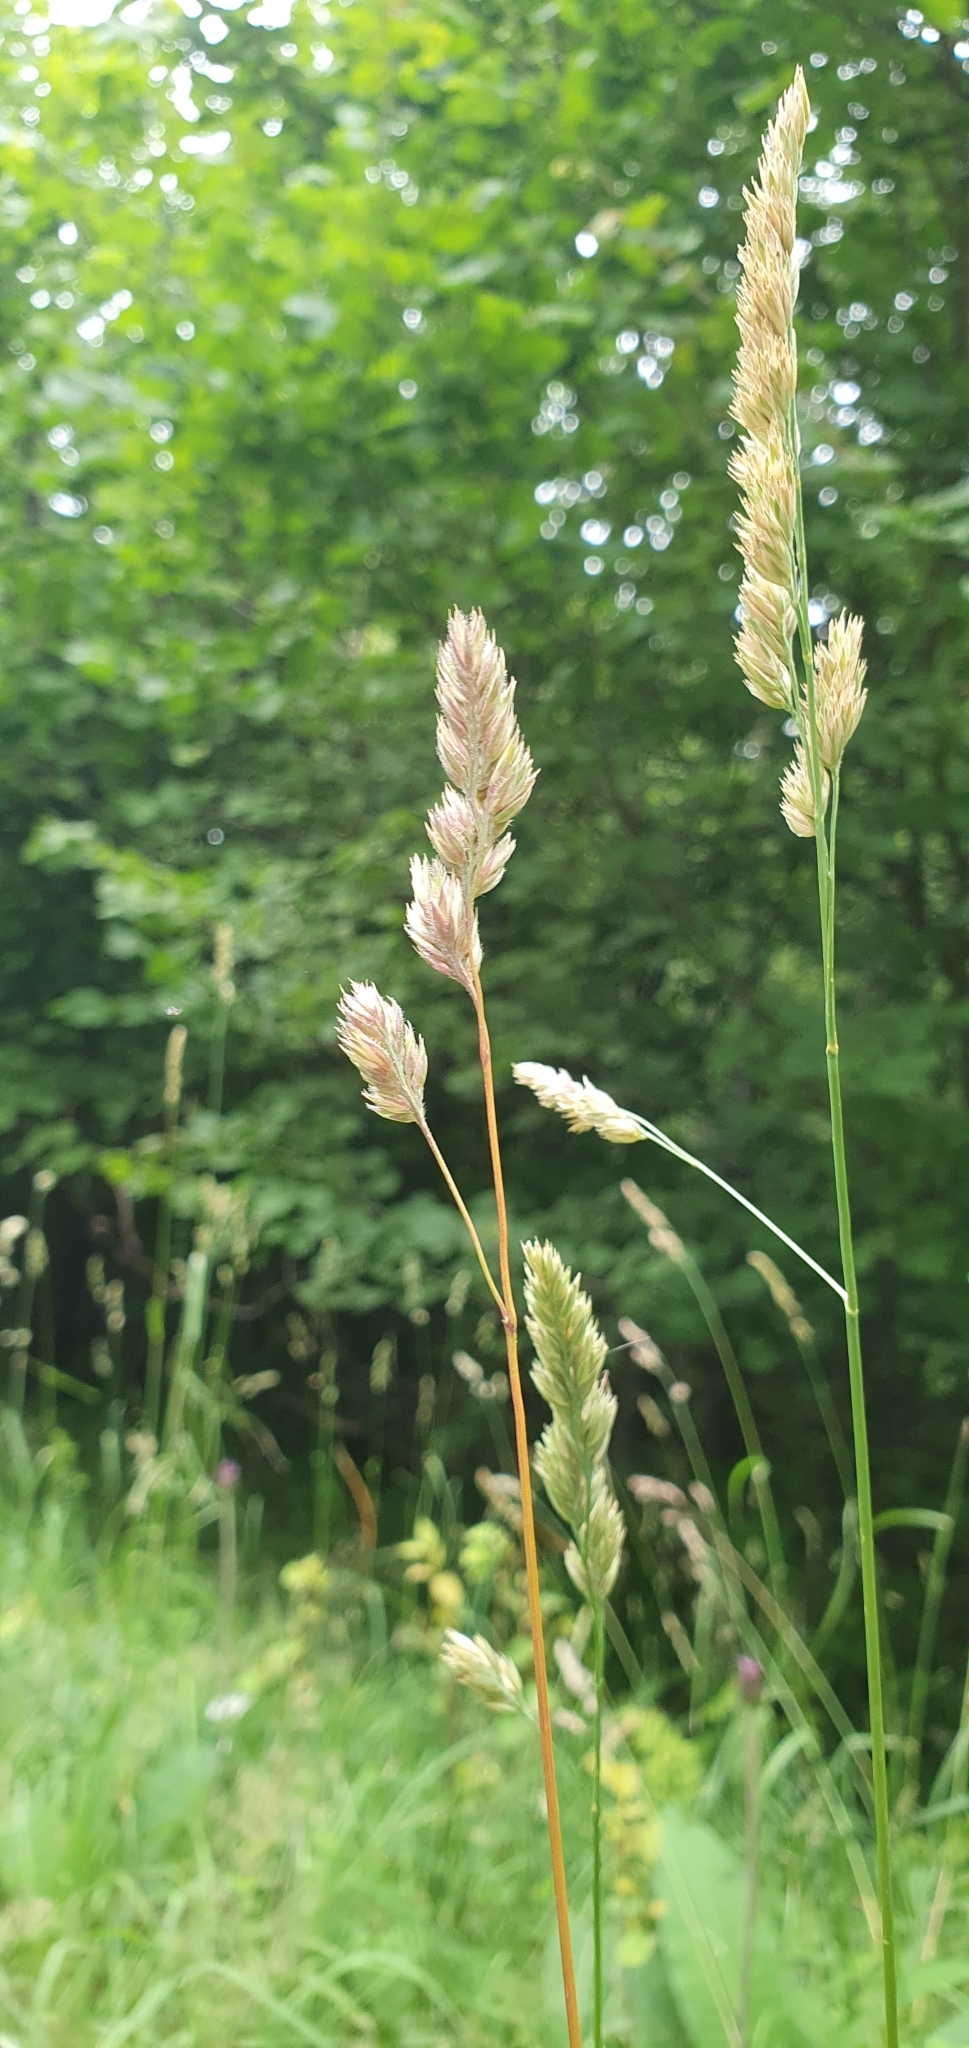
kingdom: Plantae
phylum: Tracheophyta
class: Liliopsida
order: Poales
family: Poaceae
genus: Dactylis
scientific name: Dactylis glomerata
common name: Orchardgrass
